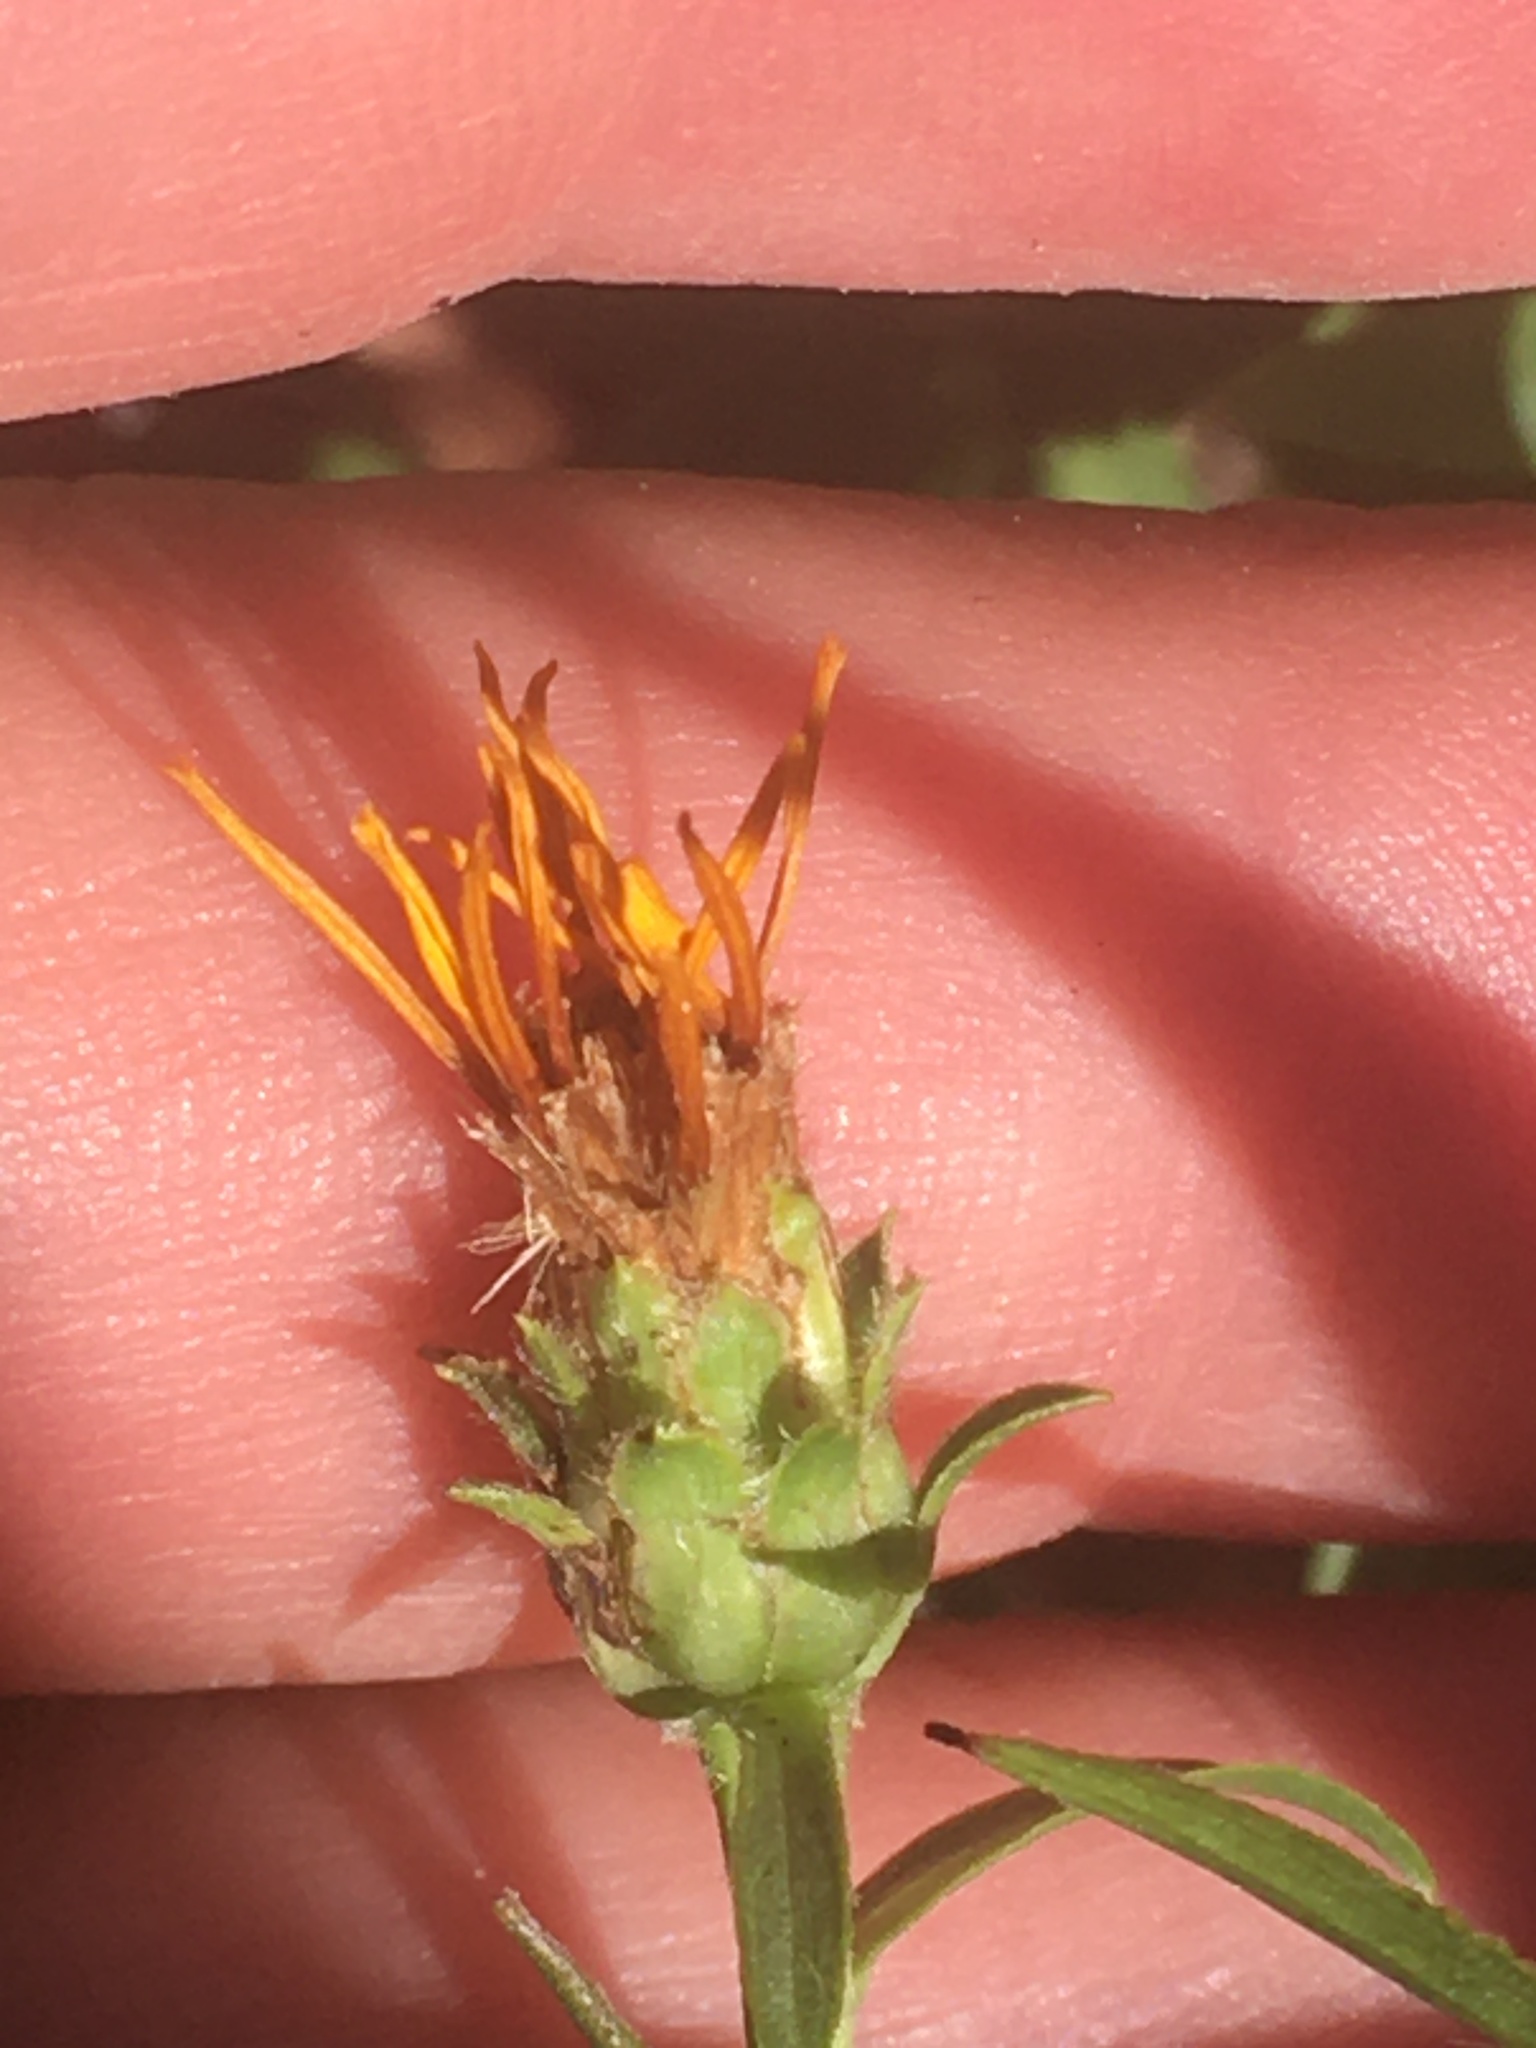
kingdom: Plantae
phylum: Tracheophyta
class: Magnoliopsida
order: Asterales
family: Asteraceae
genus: Pentanema
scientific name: Pentanema ensifolium
